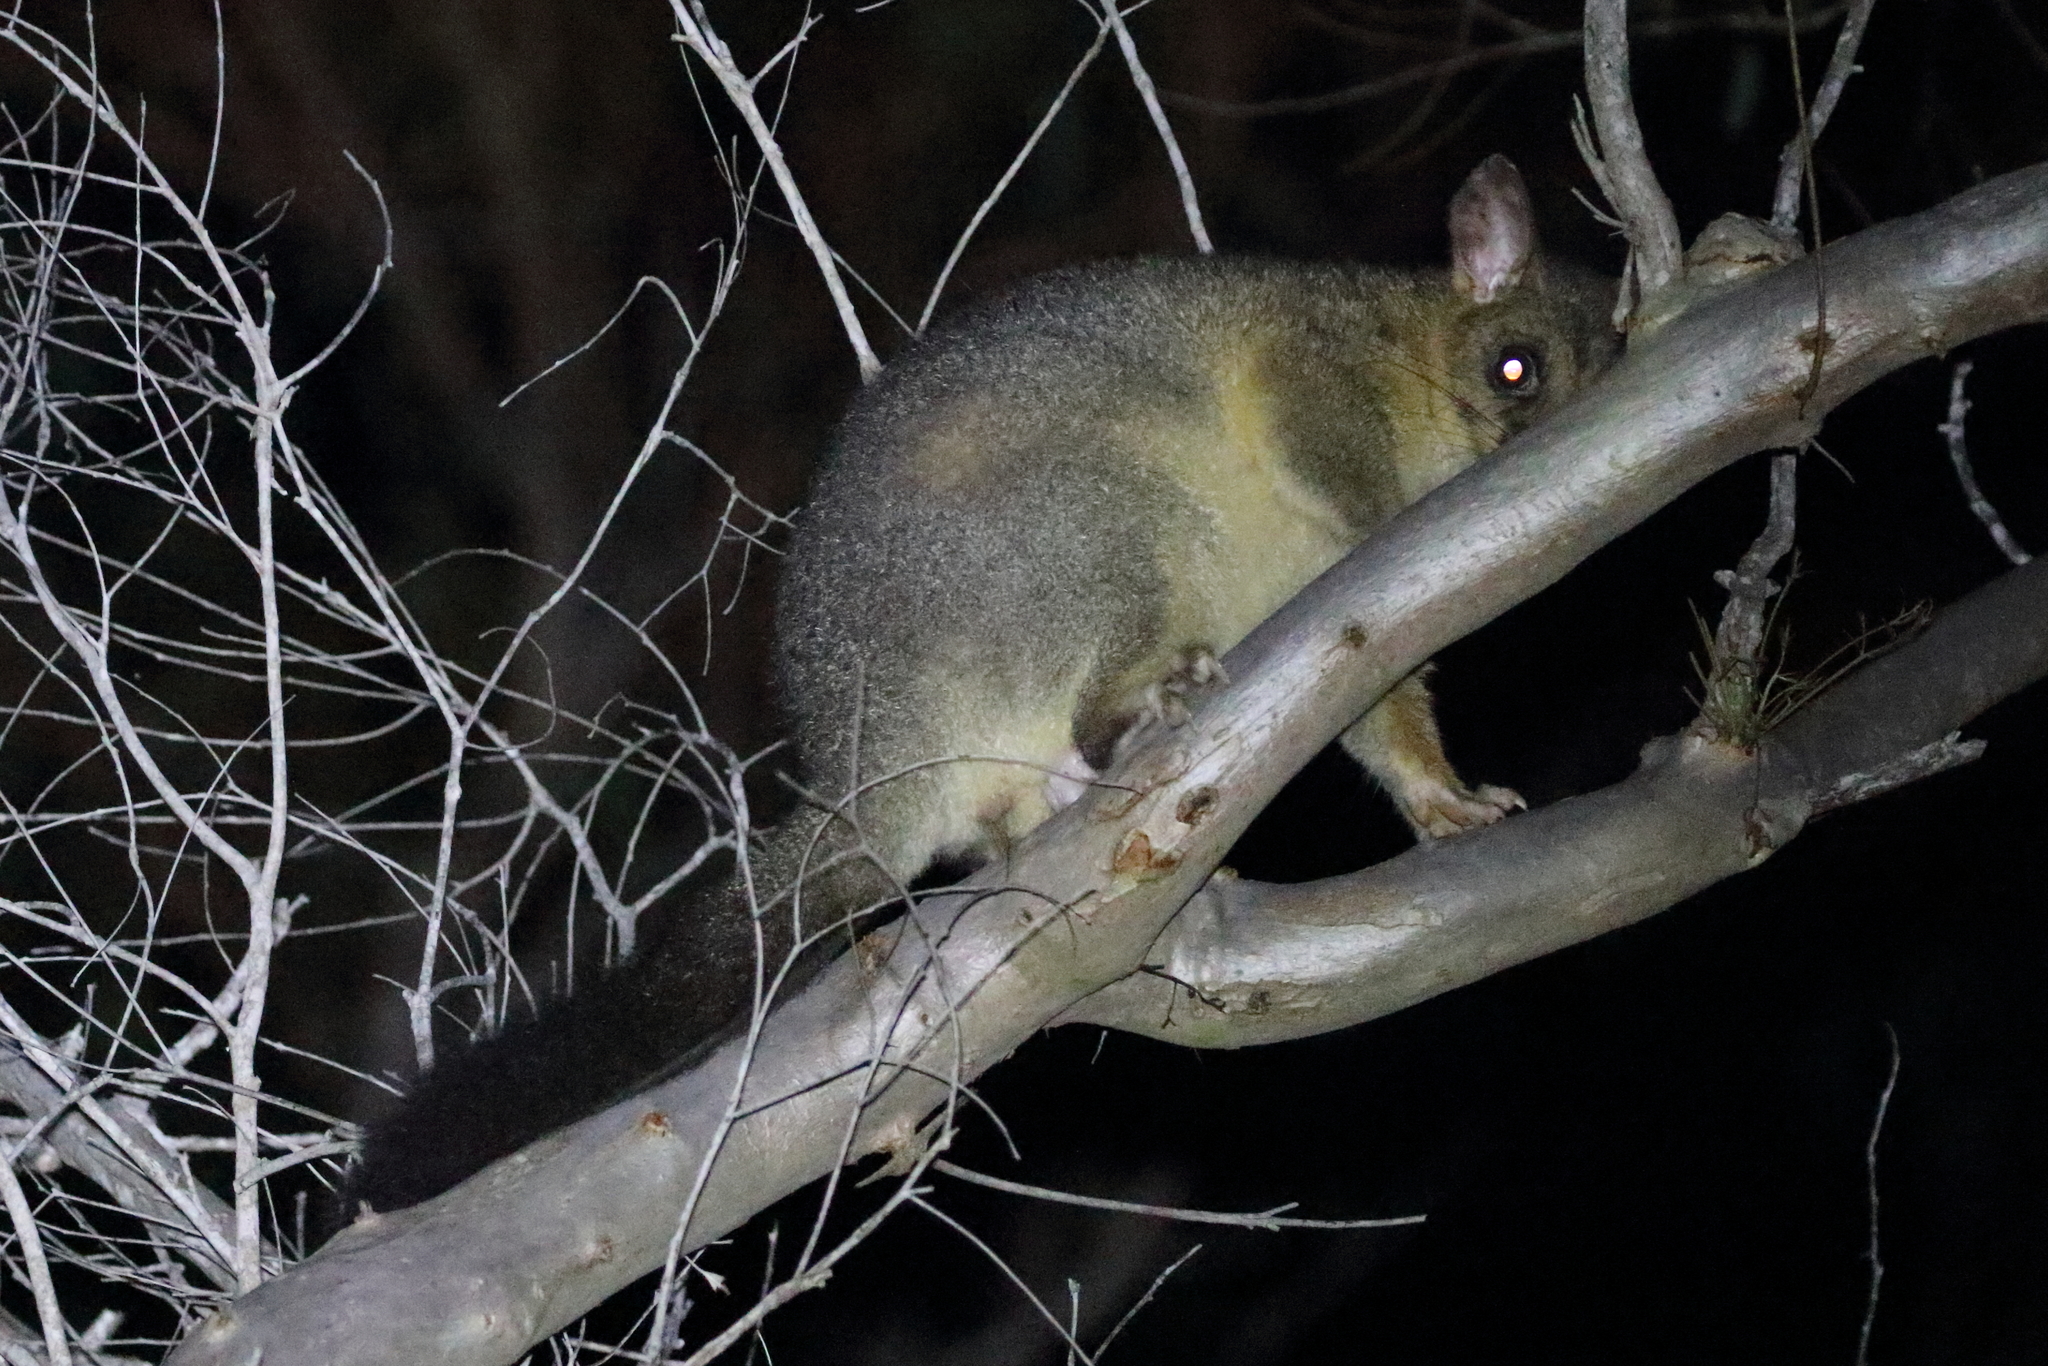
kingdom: Animalia
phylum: Chordata
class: Mammalia
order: Diprotodontia
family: Phalangeridae
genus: Trichosurus
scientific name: Trichosurus vulpecula
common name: Common brushtail
